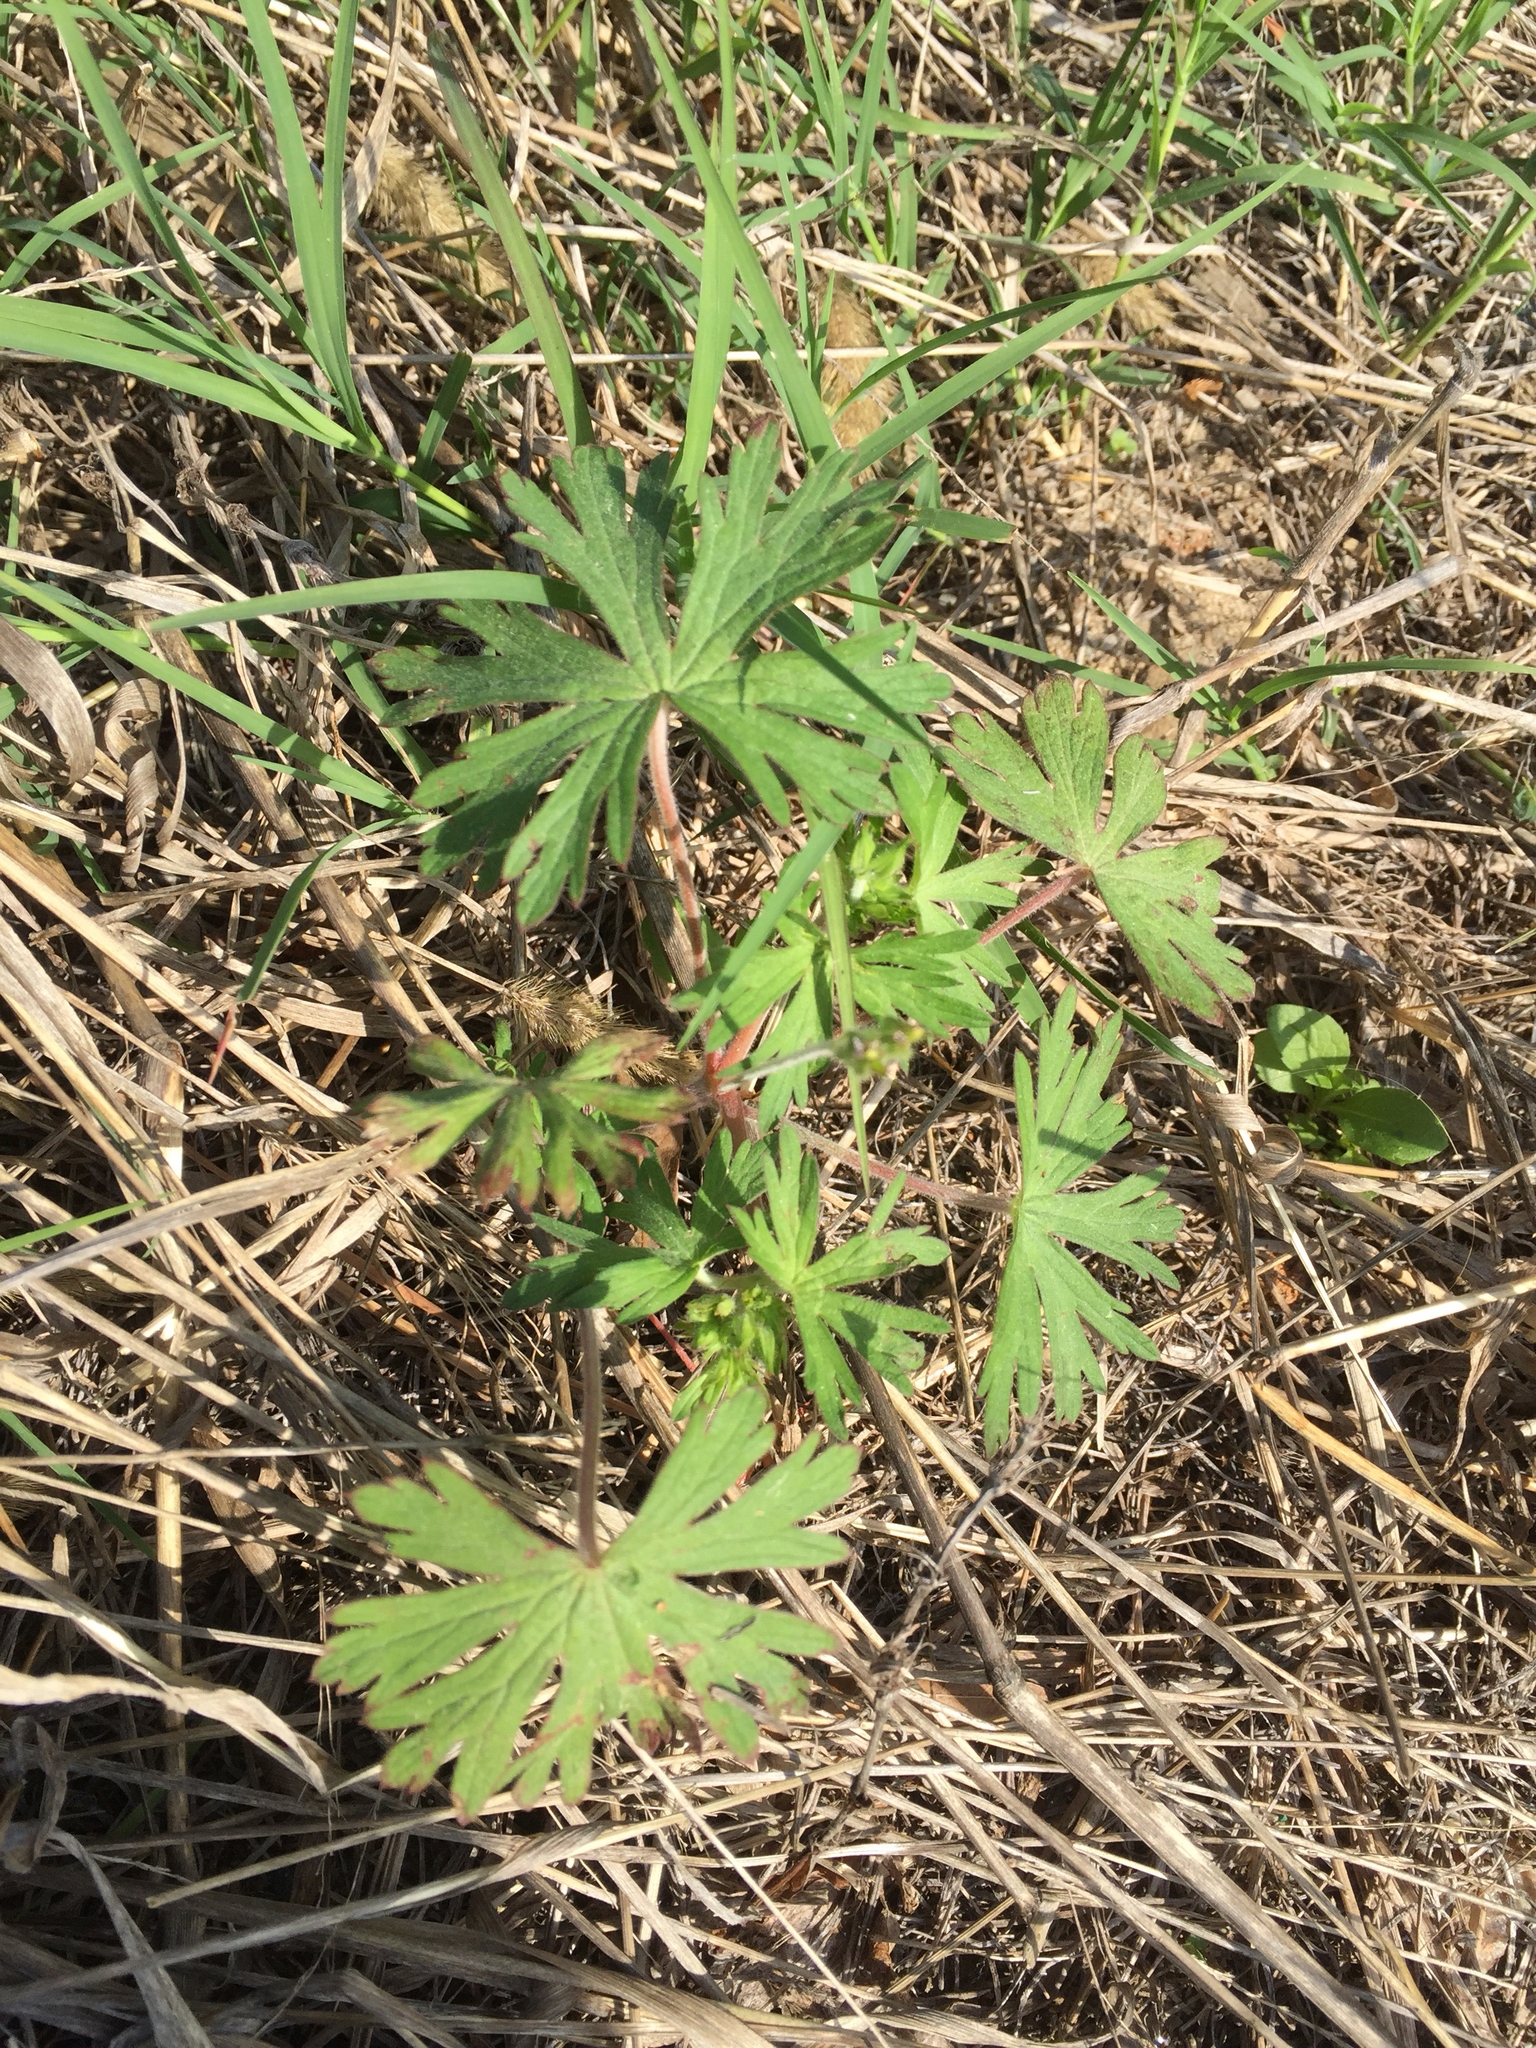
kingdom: Plantae
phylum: Tracheophyta
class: Magnoliopsida
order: Geraniales
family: Geraniaceae
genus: Geranium
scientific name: Geranium carolinianum
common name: Carolina crane's-bill
